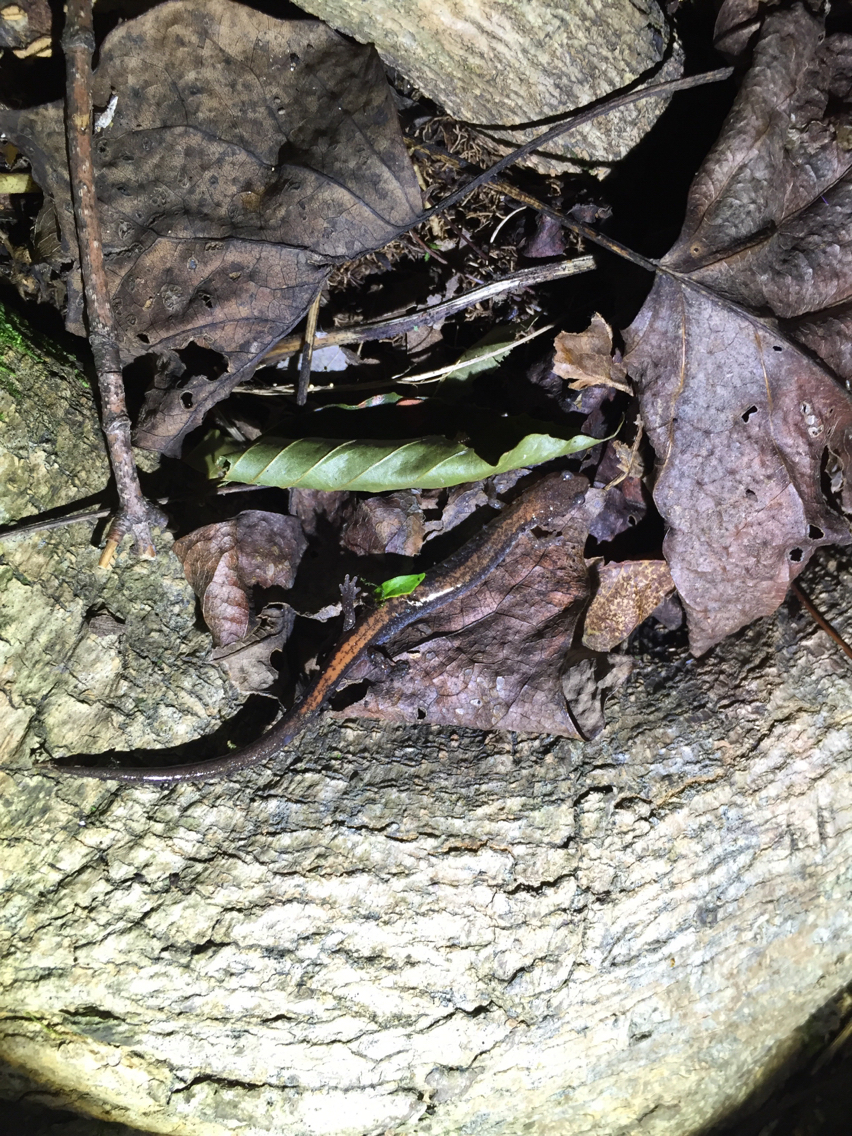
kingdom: Animalia
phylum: Chordata
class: Amphibia
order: Caudata
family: Plethodontidae
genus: Plethodon
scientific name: Plethodon cinereus
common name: Redback salamander
